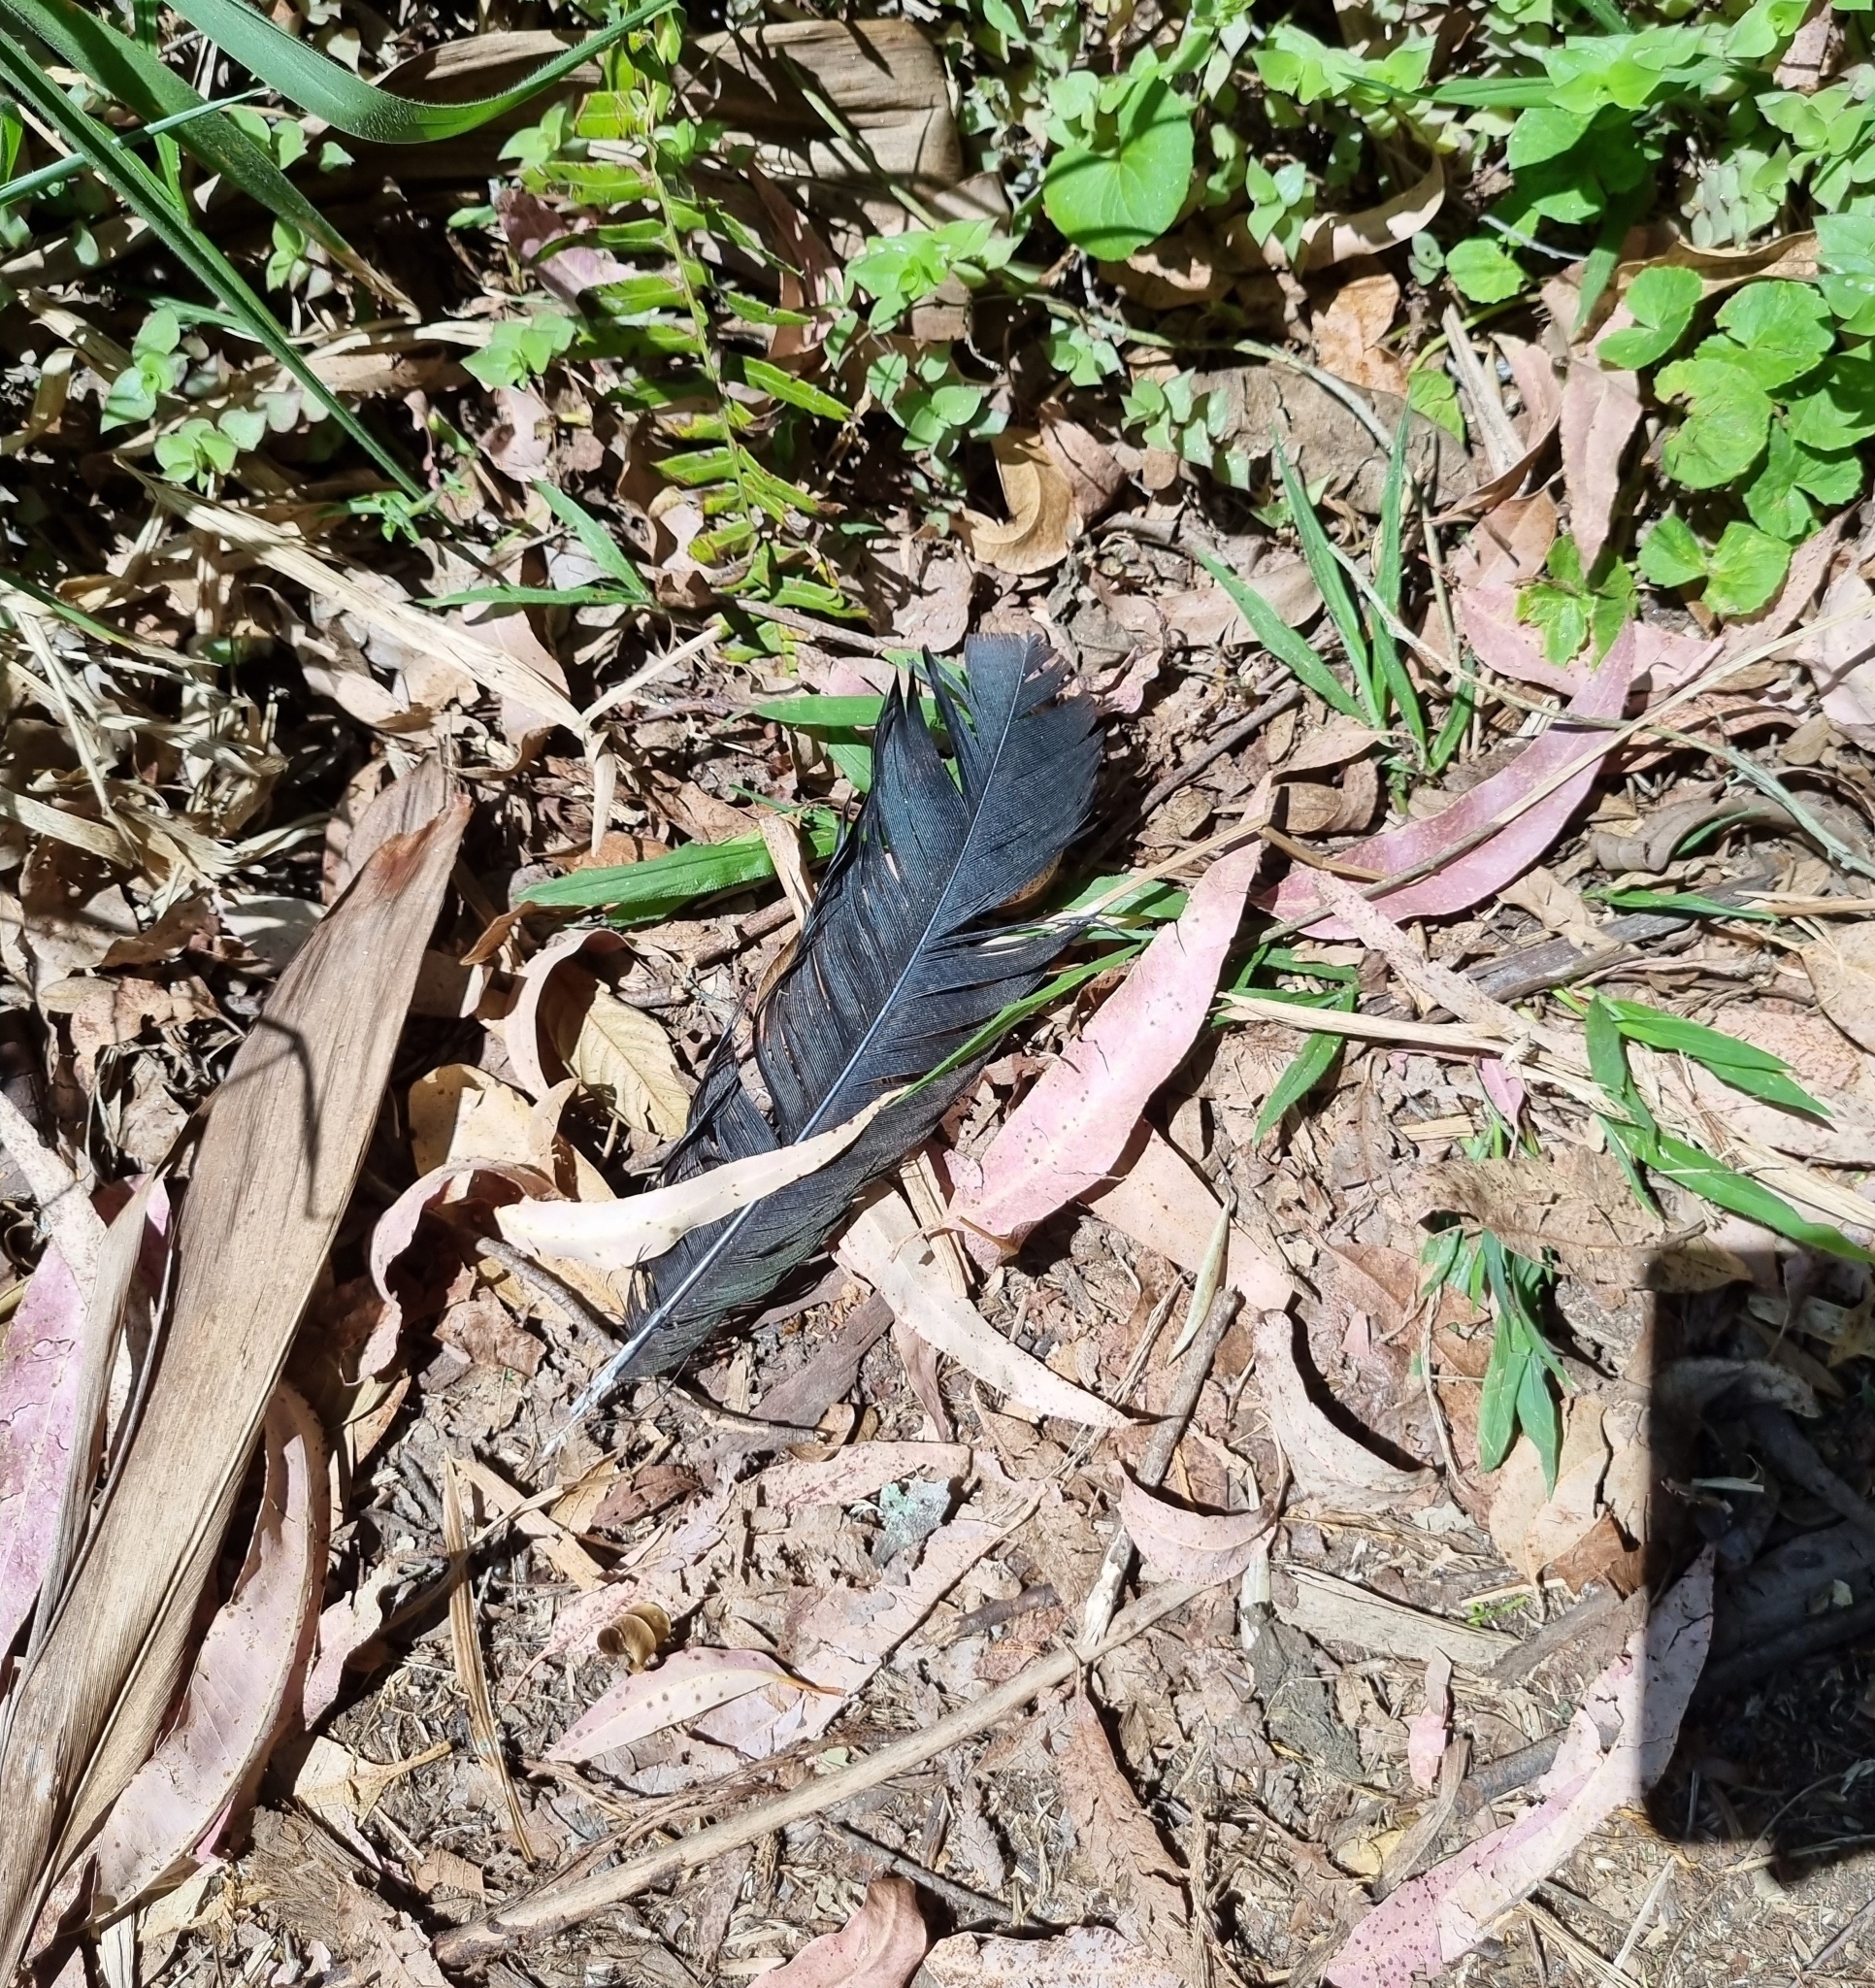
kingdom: Animalia
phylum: Chordata
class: Aves
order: Pelecaniformes
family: Threskiornithidae
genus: Mesembrinibis
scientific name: Mesembrinibis cayennensis
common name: Green ibis
